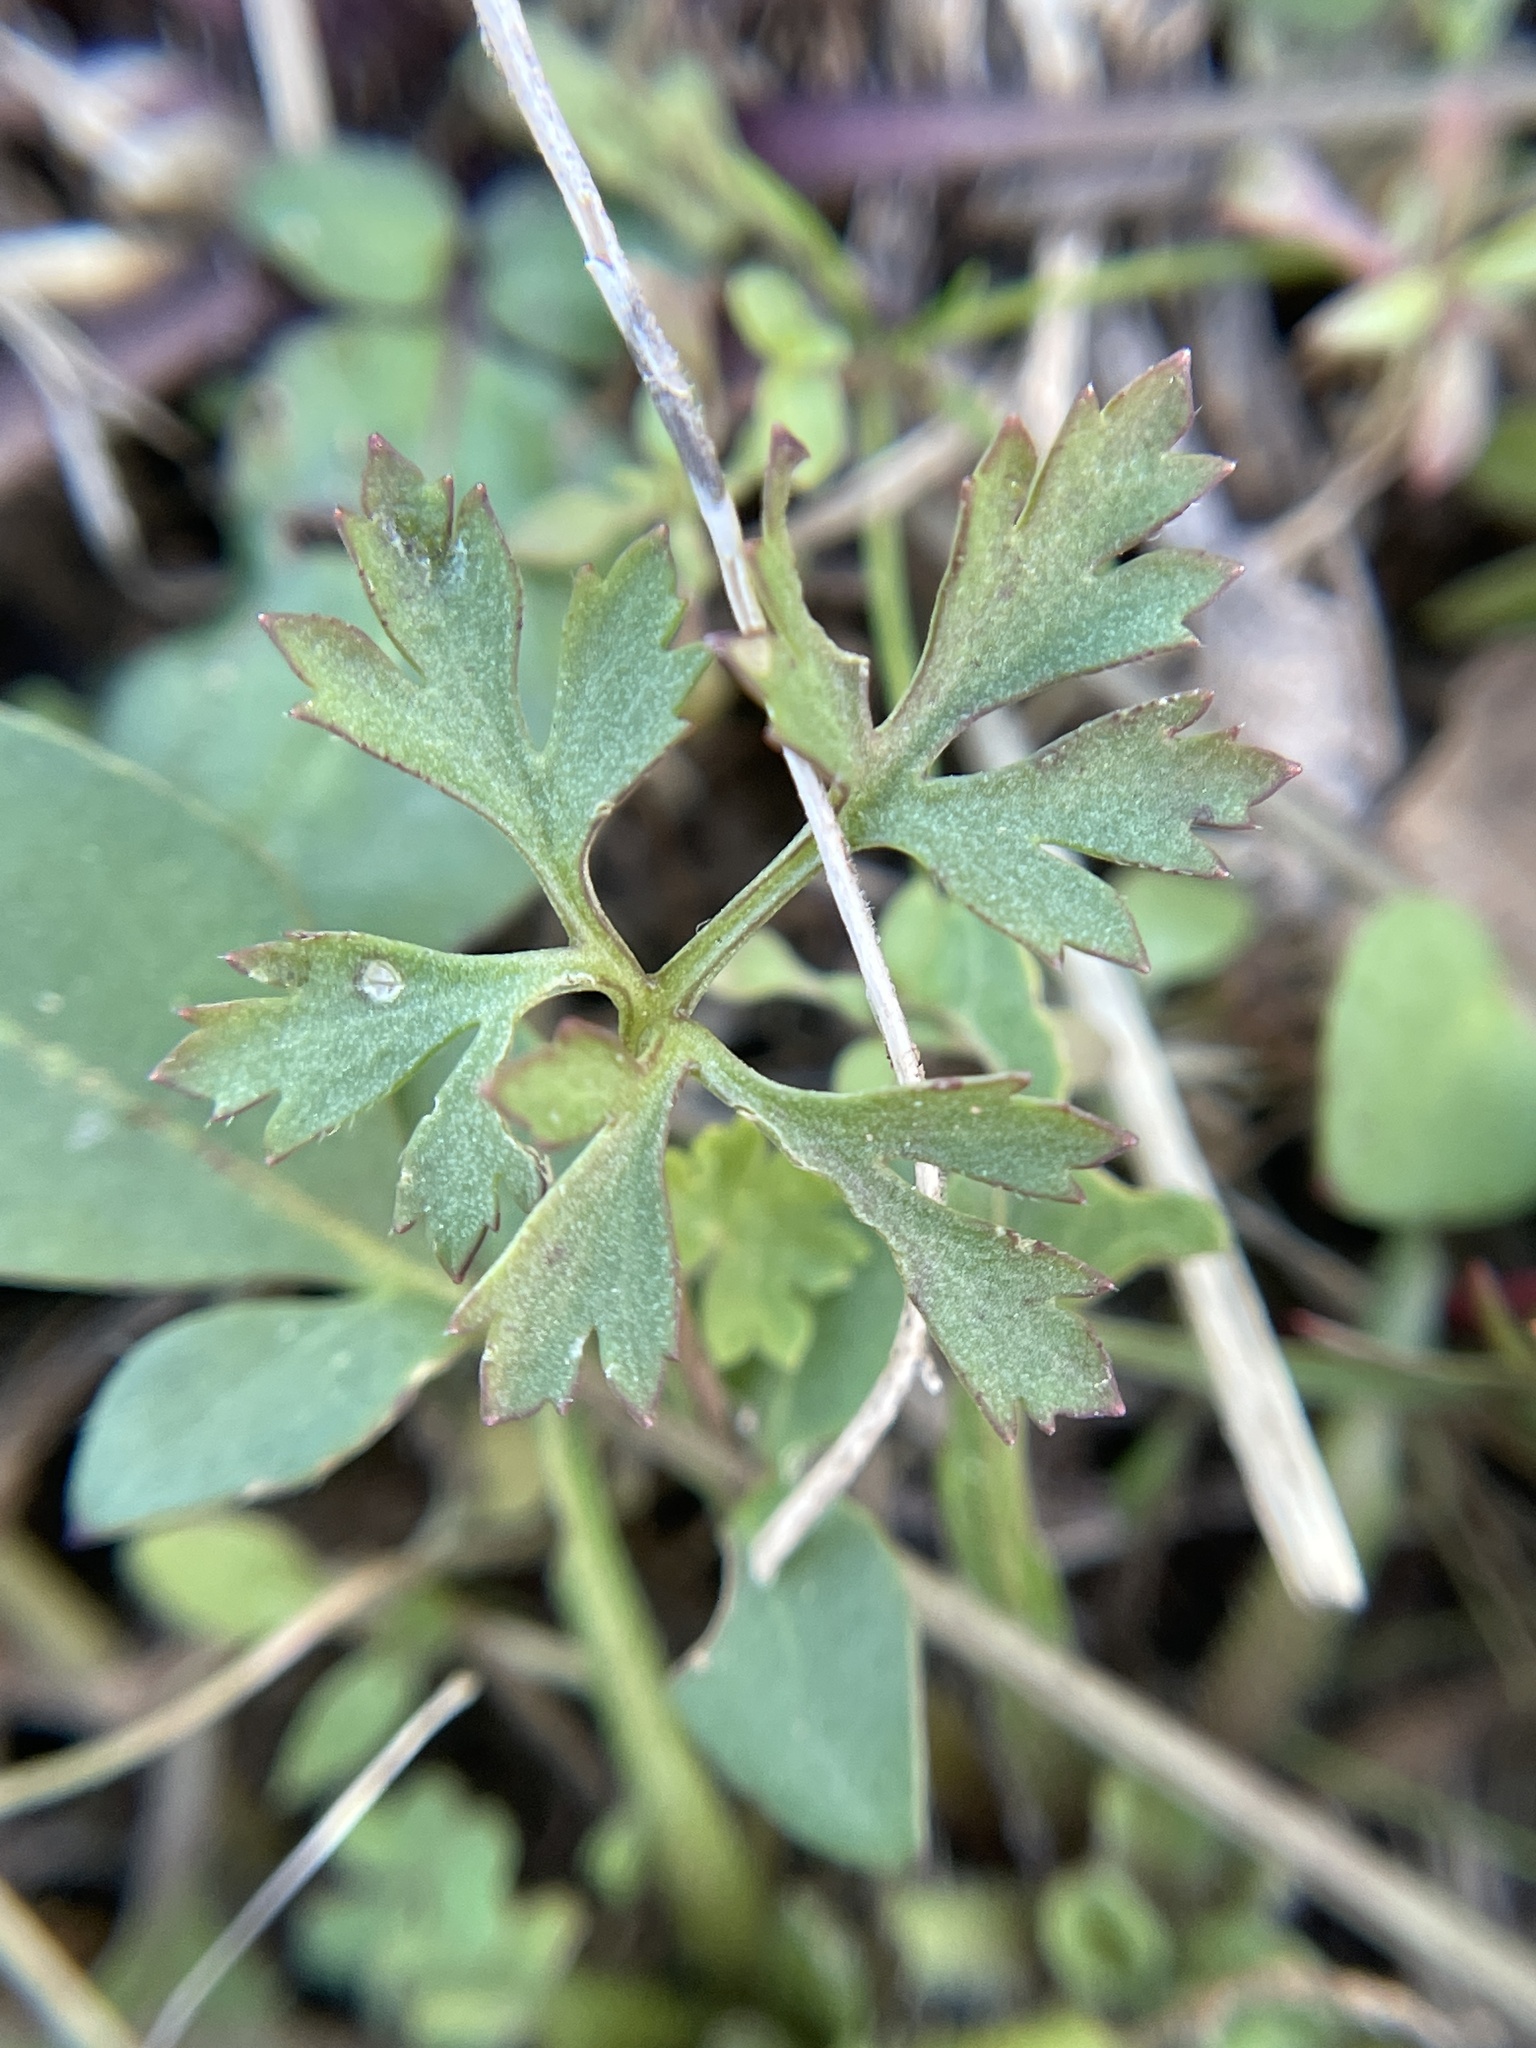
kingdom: Plantae
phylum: Tracheophyta
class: Magnoliopsida
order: Ranunculales
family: Ranunculaceae
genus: Anemone
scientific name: Anemone caroliniana
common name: Carolina anemone
